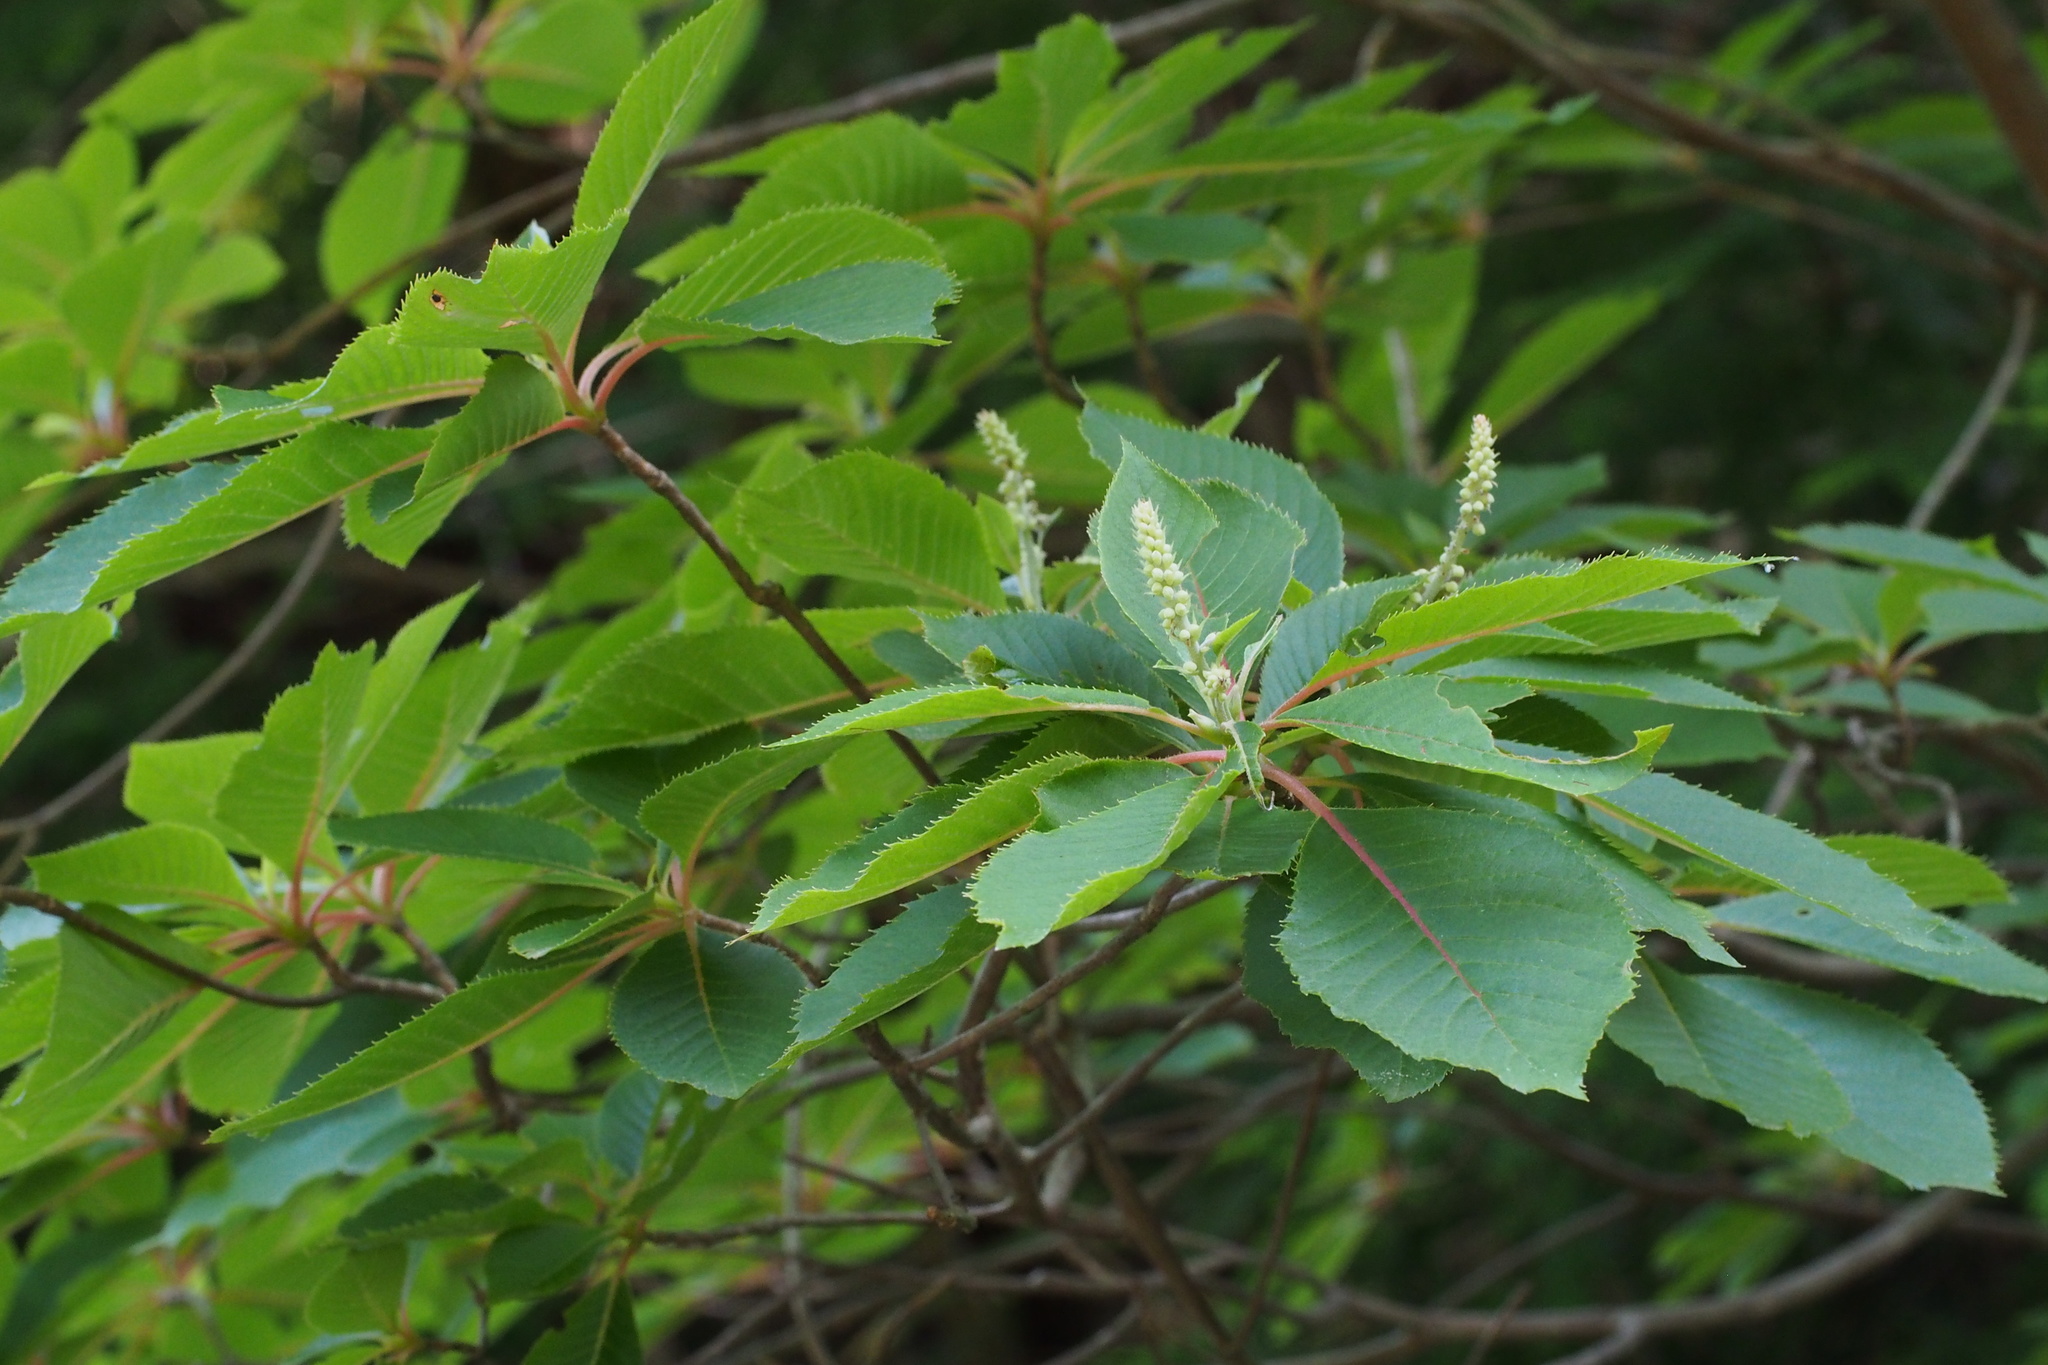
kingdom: Plantae
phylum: Tracheophyta
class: Magnoliopsida
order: Ericales
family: Clethraceae
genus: Clethra
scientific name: Clethra barbinervis
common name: Japanese clethra
